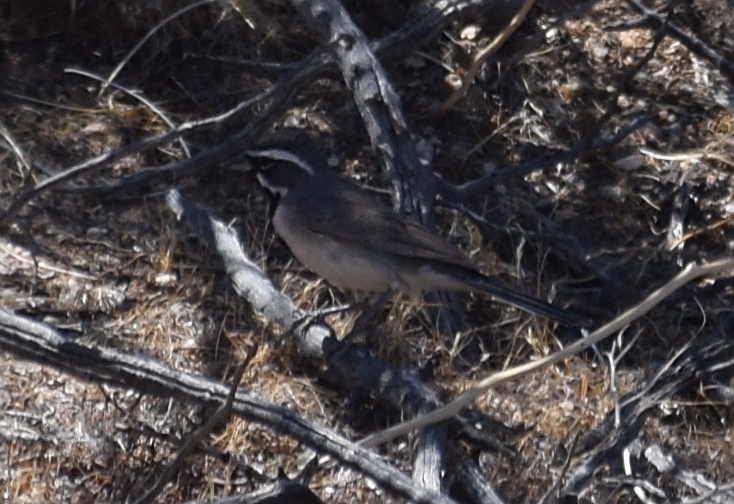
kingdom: Animalia
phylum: Chordata
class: Aves
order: Passeriformes
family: Passerellidae
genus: Amphispiza
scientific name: Amphispiza bilineata
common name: Black-throated sparrow
